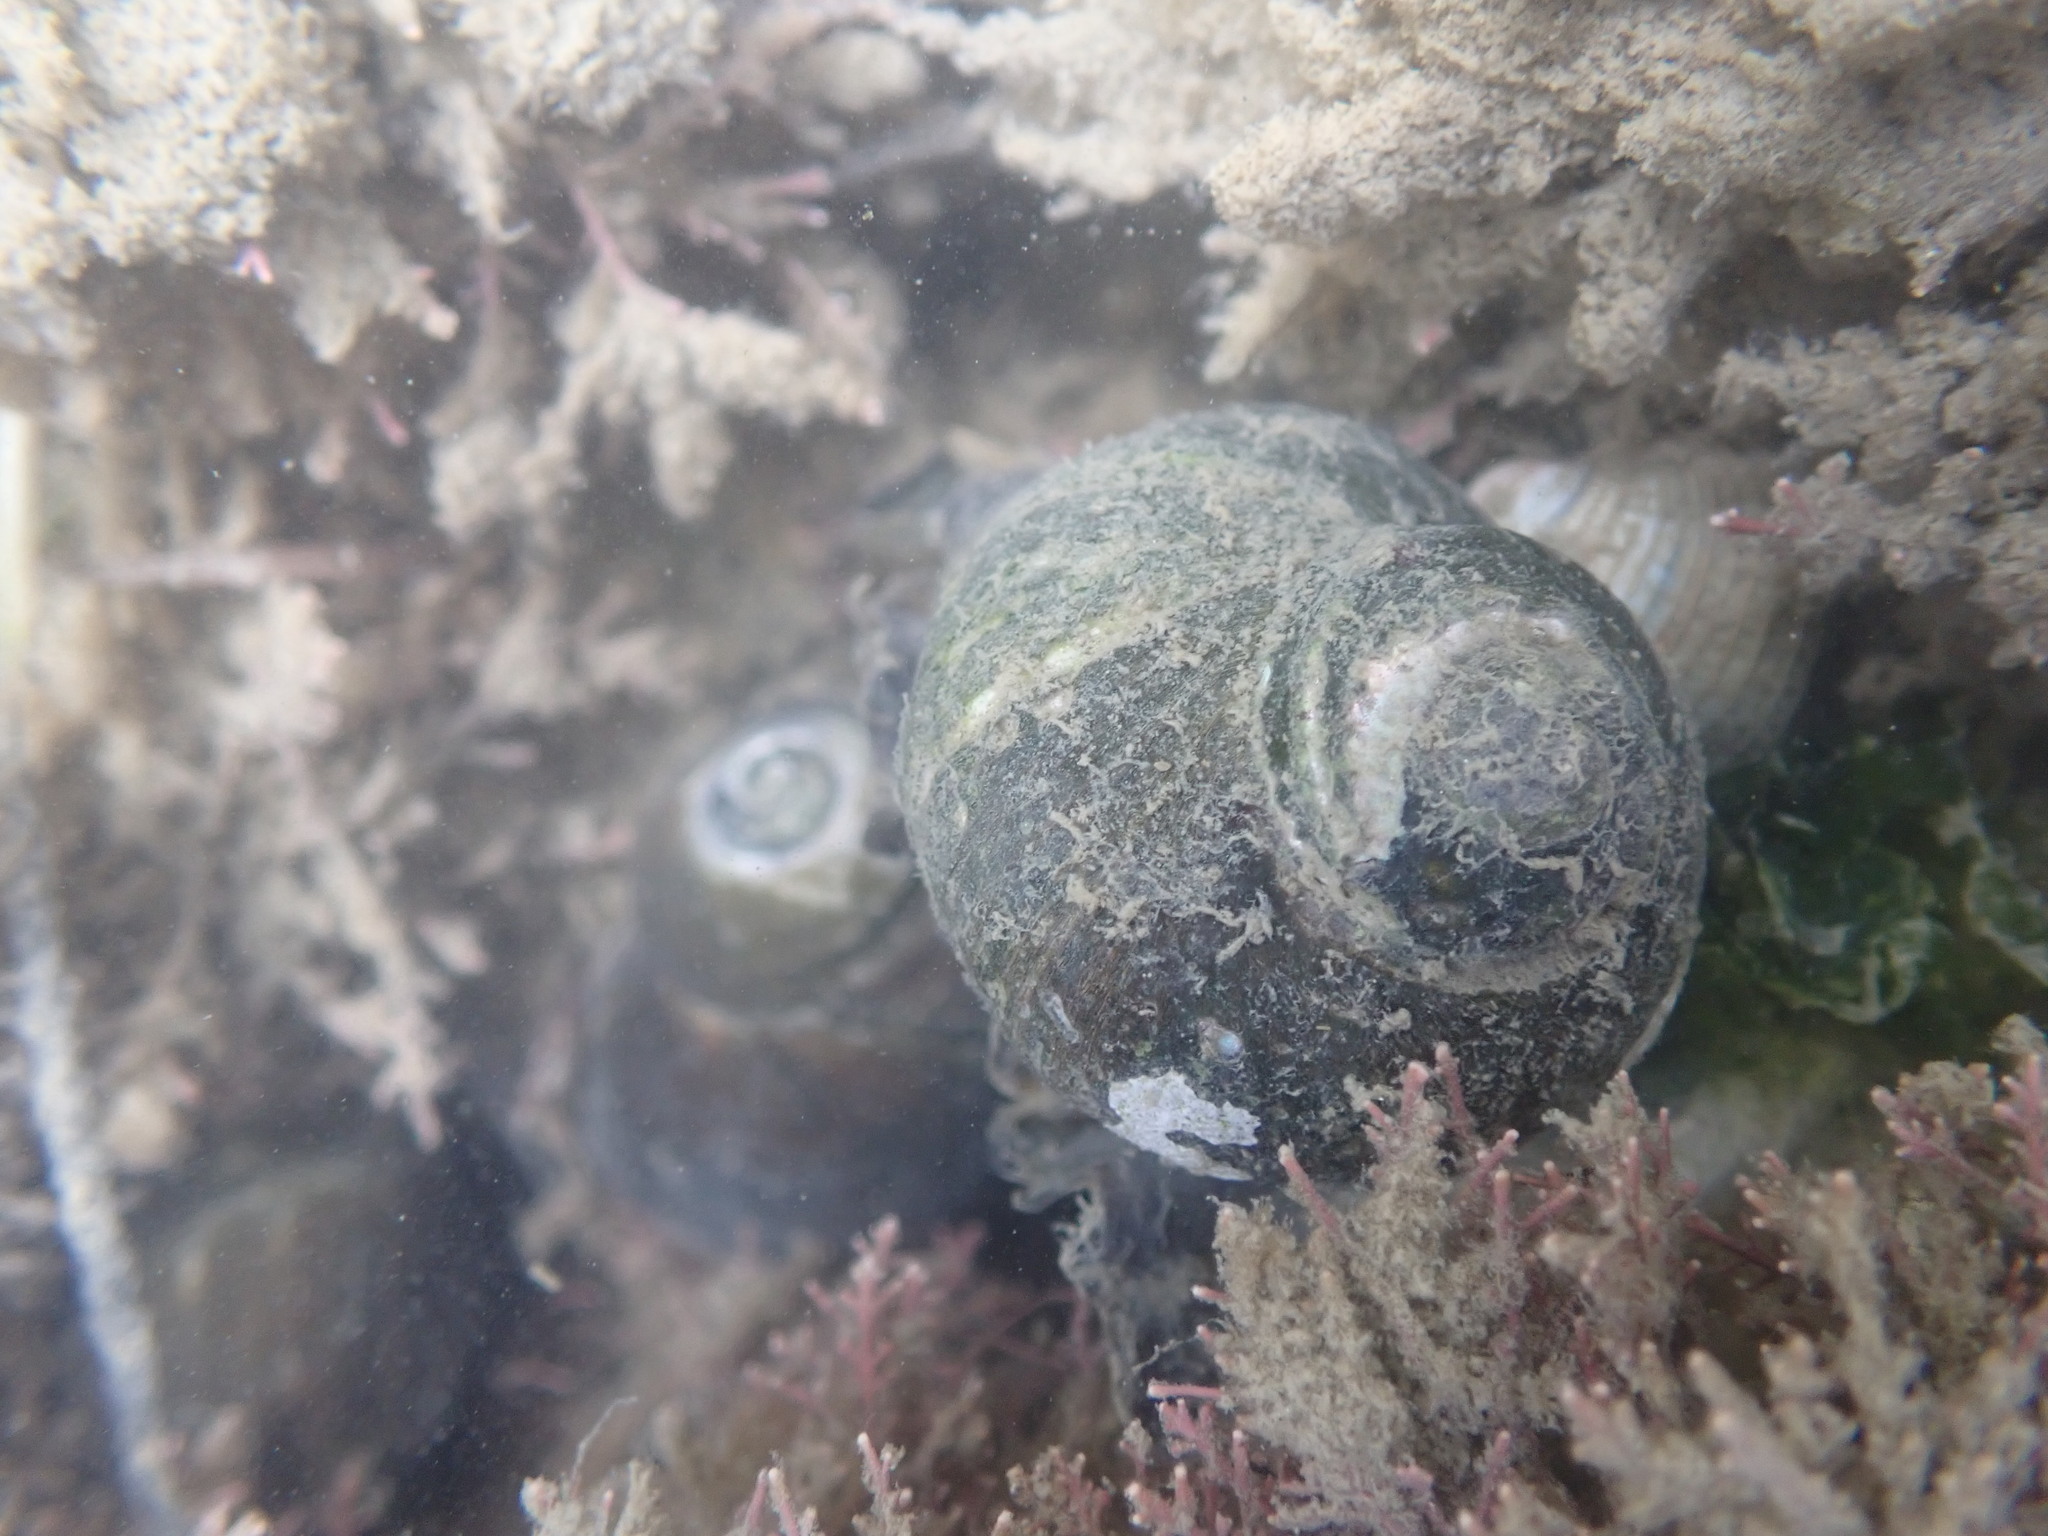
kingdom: Animalia
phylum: Mollusca
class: Gastropoda
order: Trochida
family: Turbinidae
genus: Lunella
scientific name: Lunella smaragda
